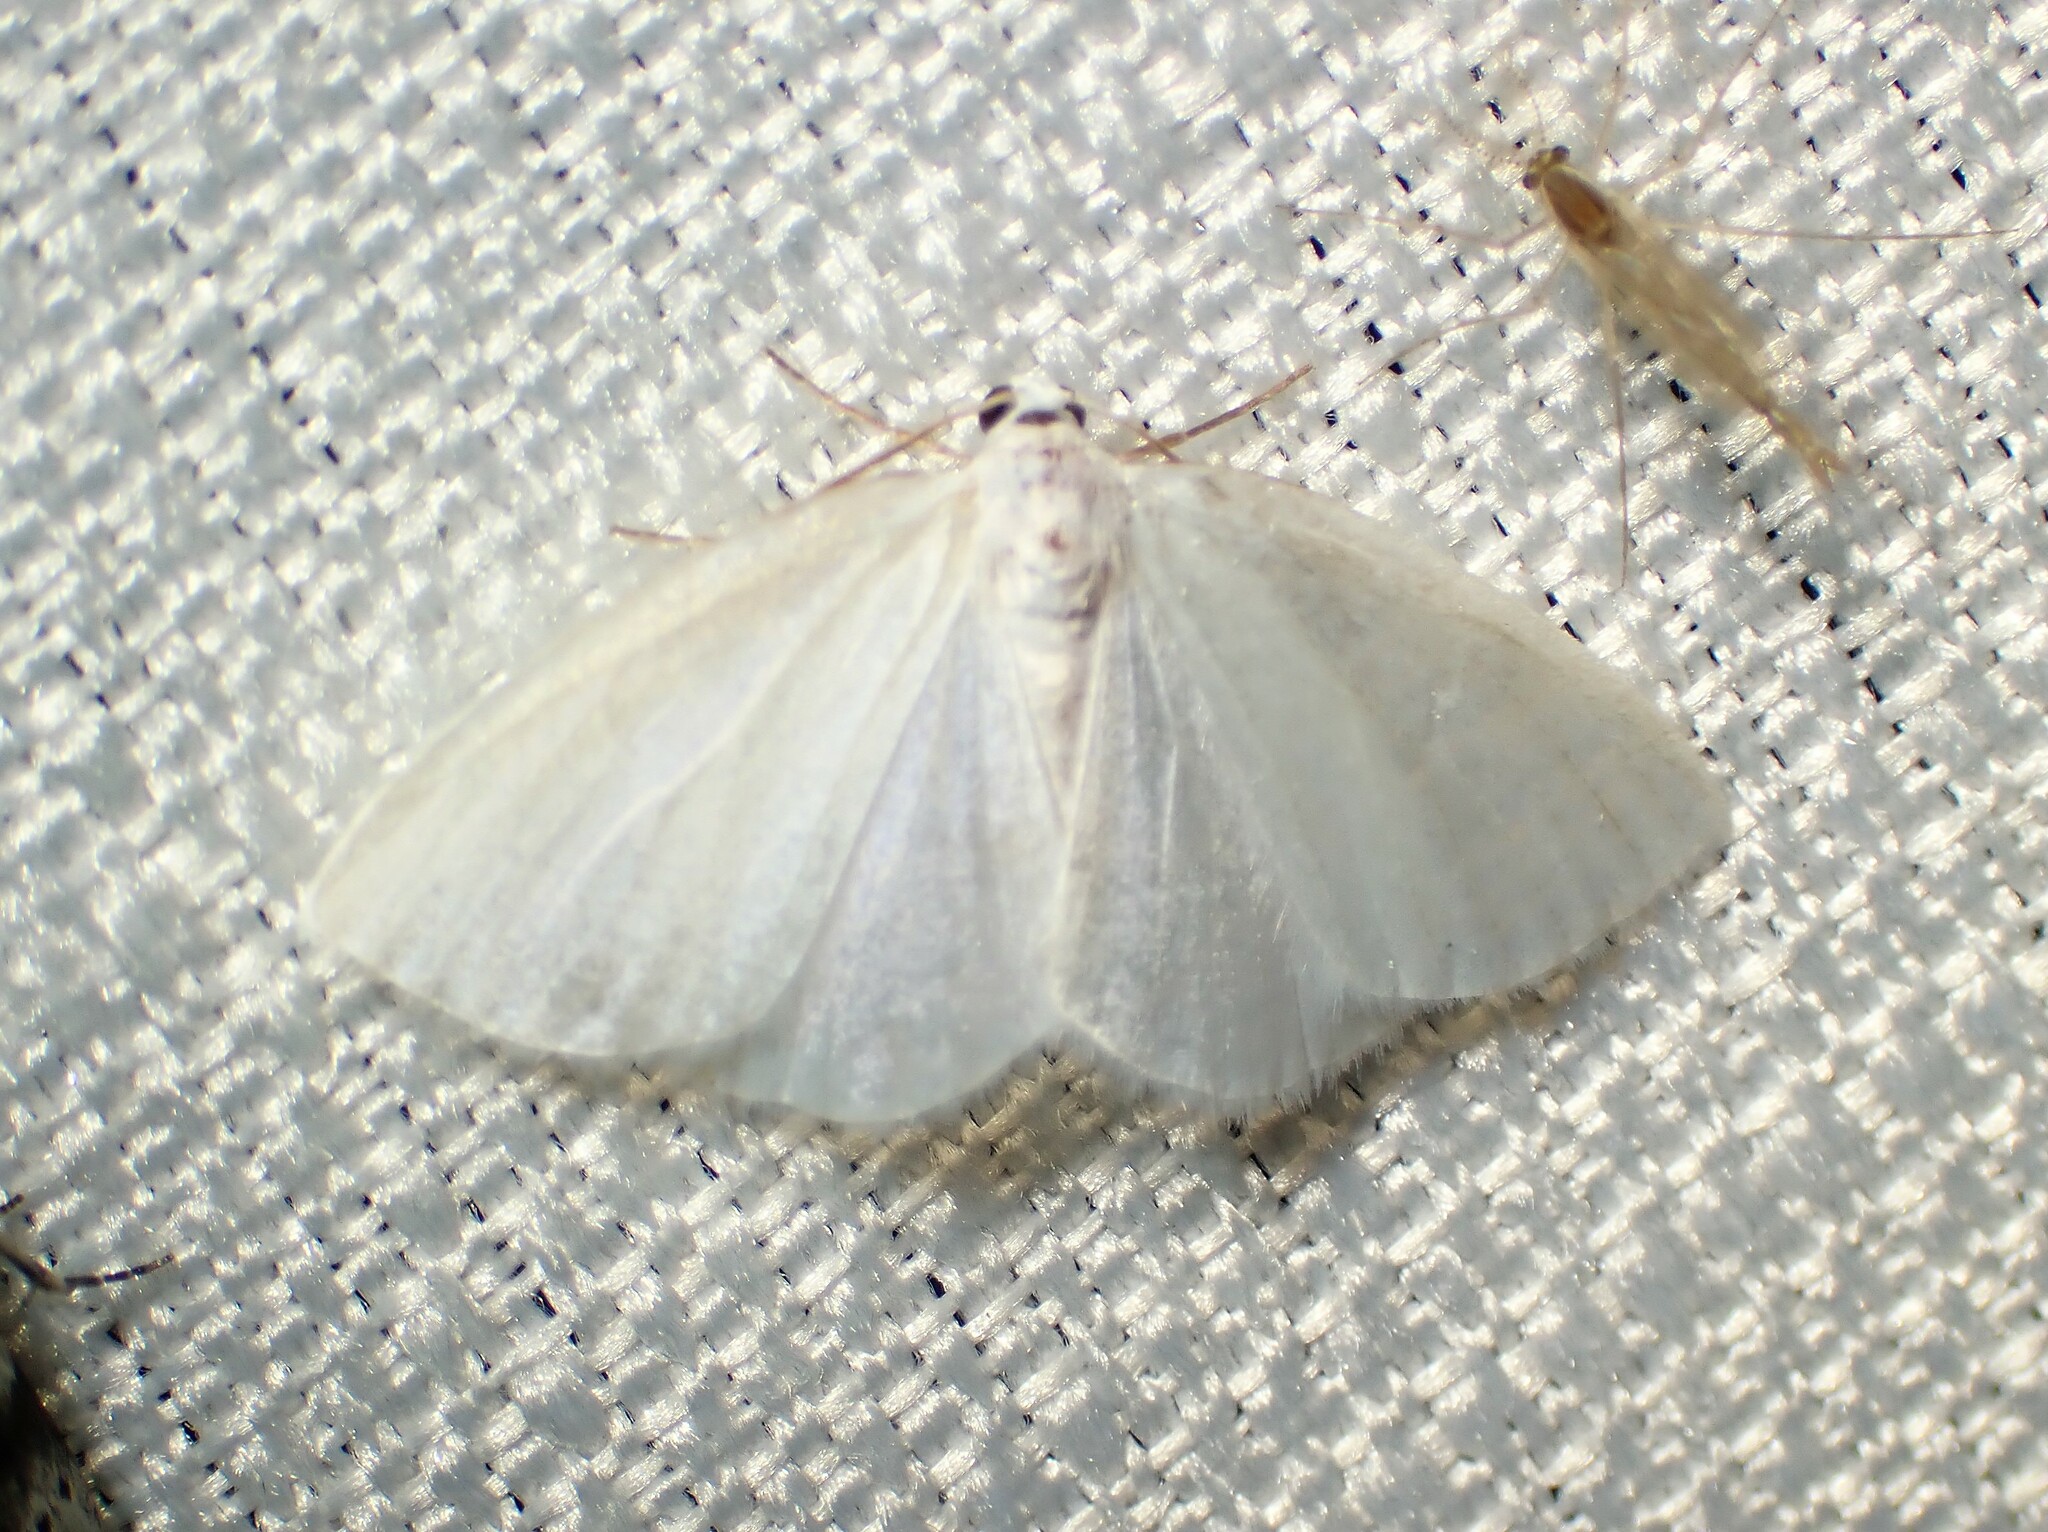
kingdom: Animalia
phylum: Arthropoda
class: Insecta
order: Lepidoptera
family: Geometridae
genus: Lomographa
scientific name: Lomographa vestaliata
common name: White spring moth
